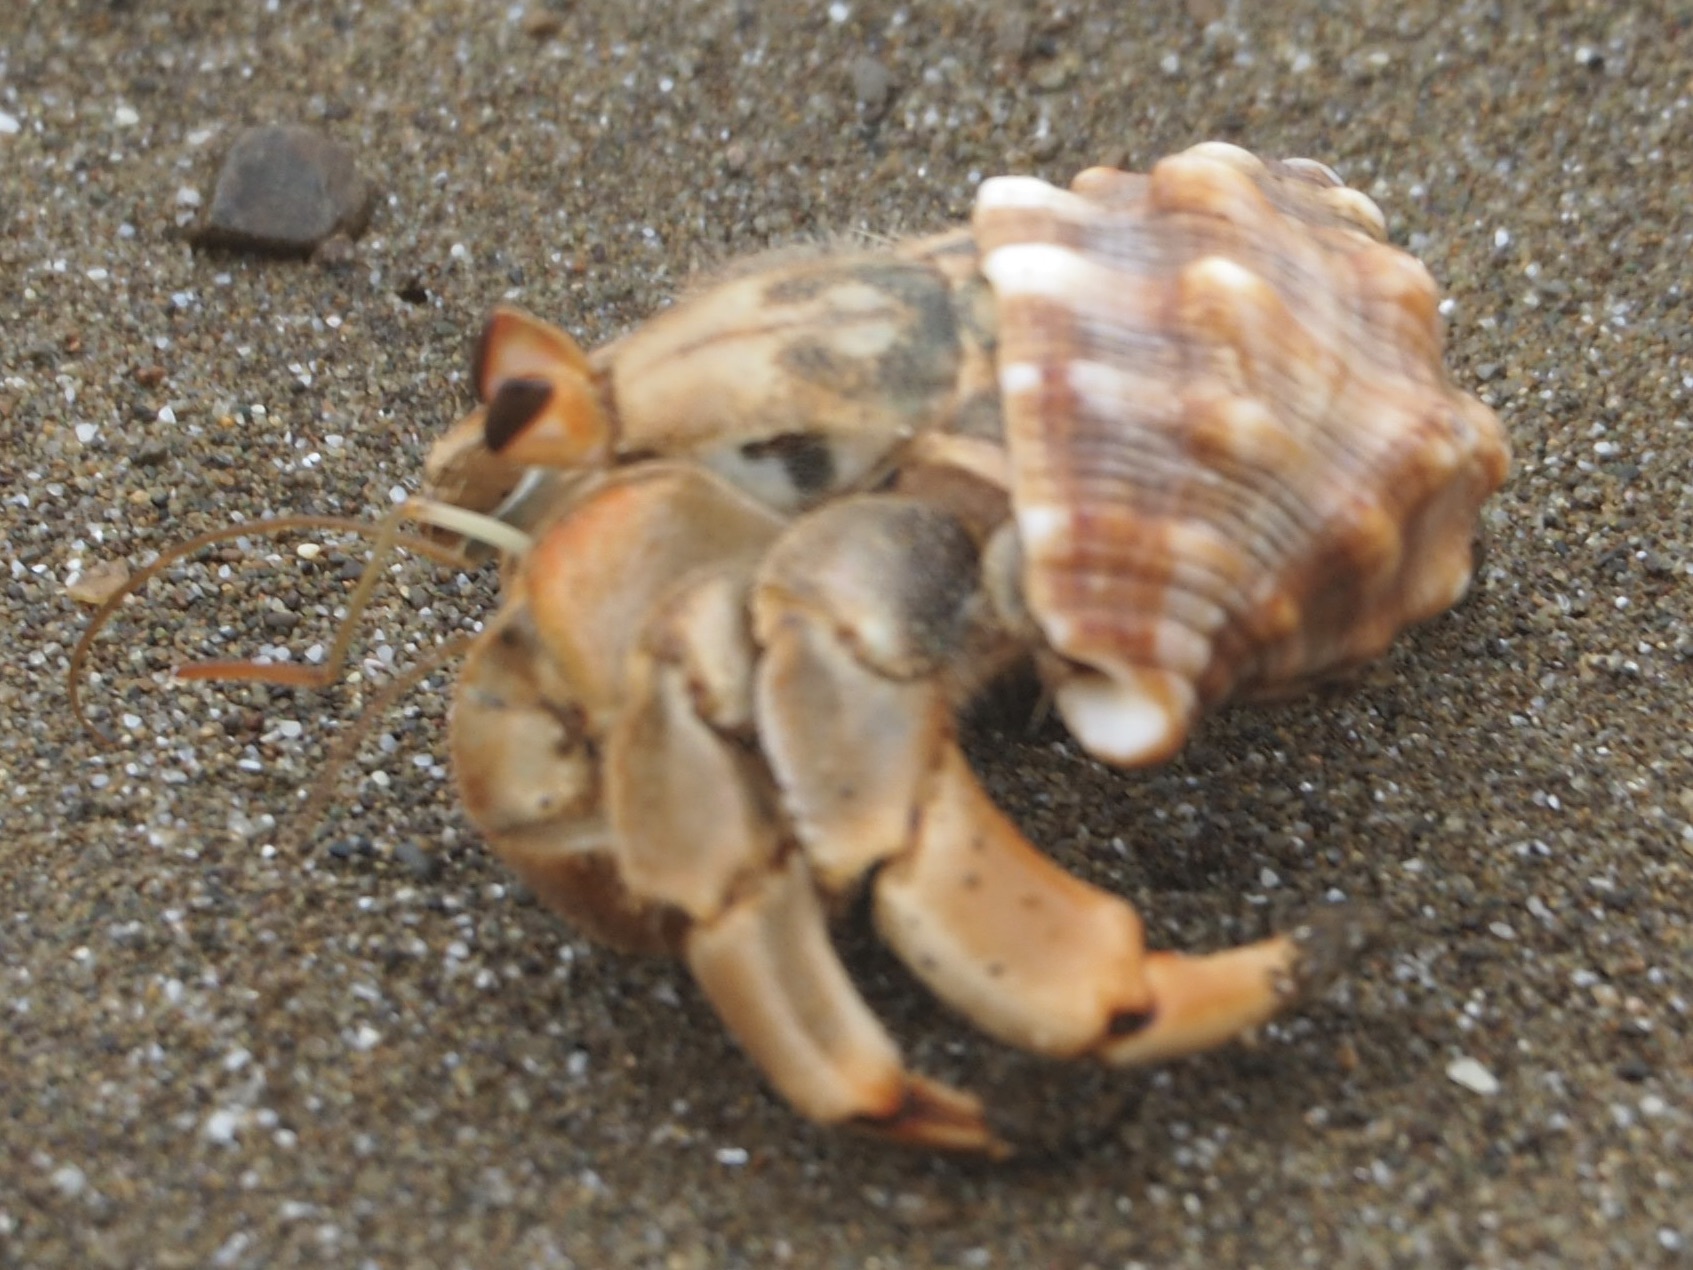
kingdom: Animalia
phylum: Arthropoda
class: Malacostraca
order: Decapoda
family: Coenobitidae
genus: Coenobita
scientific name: Coenobita compressus
